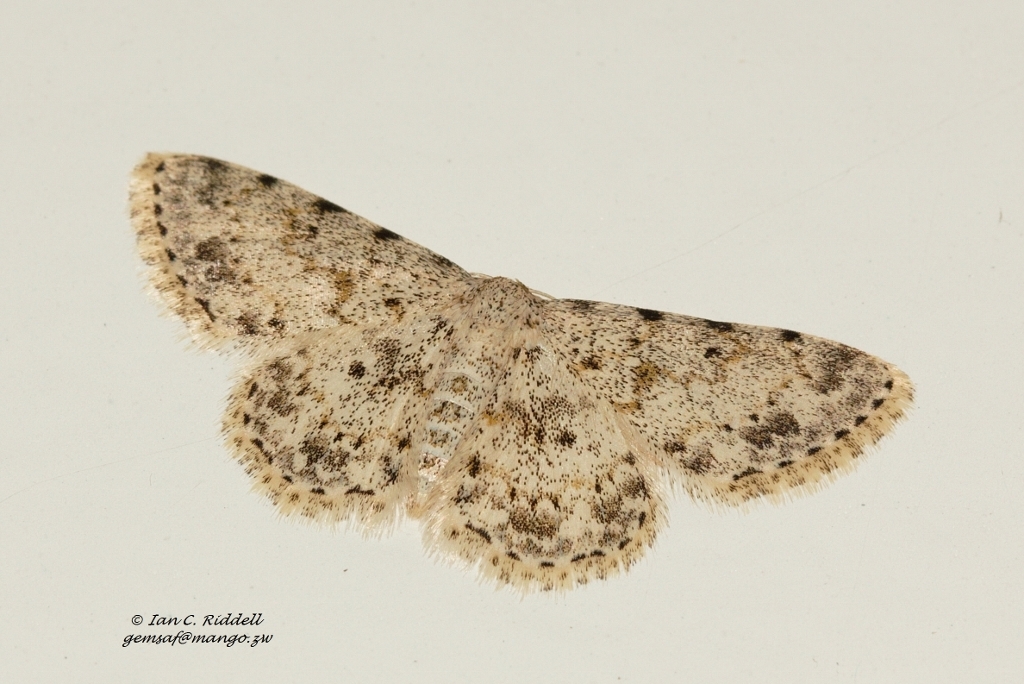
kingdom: Animalia
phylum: Arthropoda
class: Insecta
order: Lepidoptera
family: Geometridae
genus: Scopula
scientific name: Scopula nigrinotata
